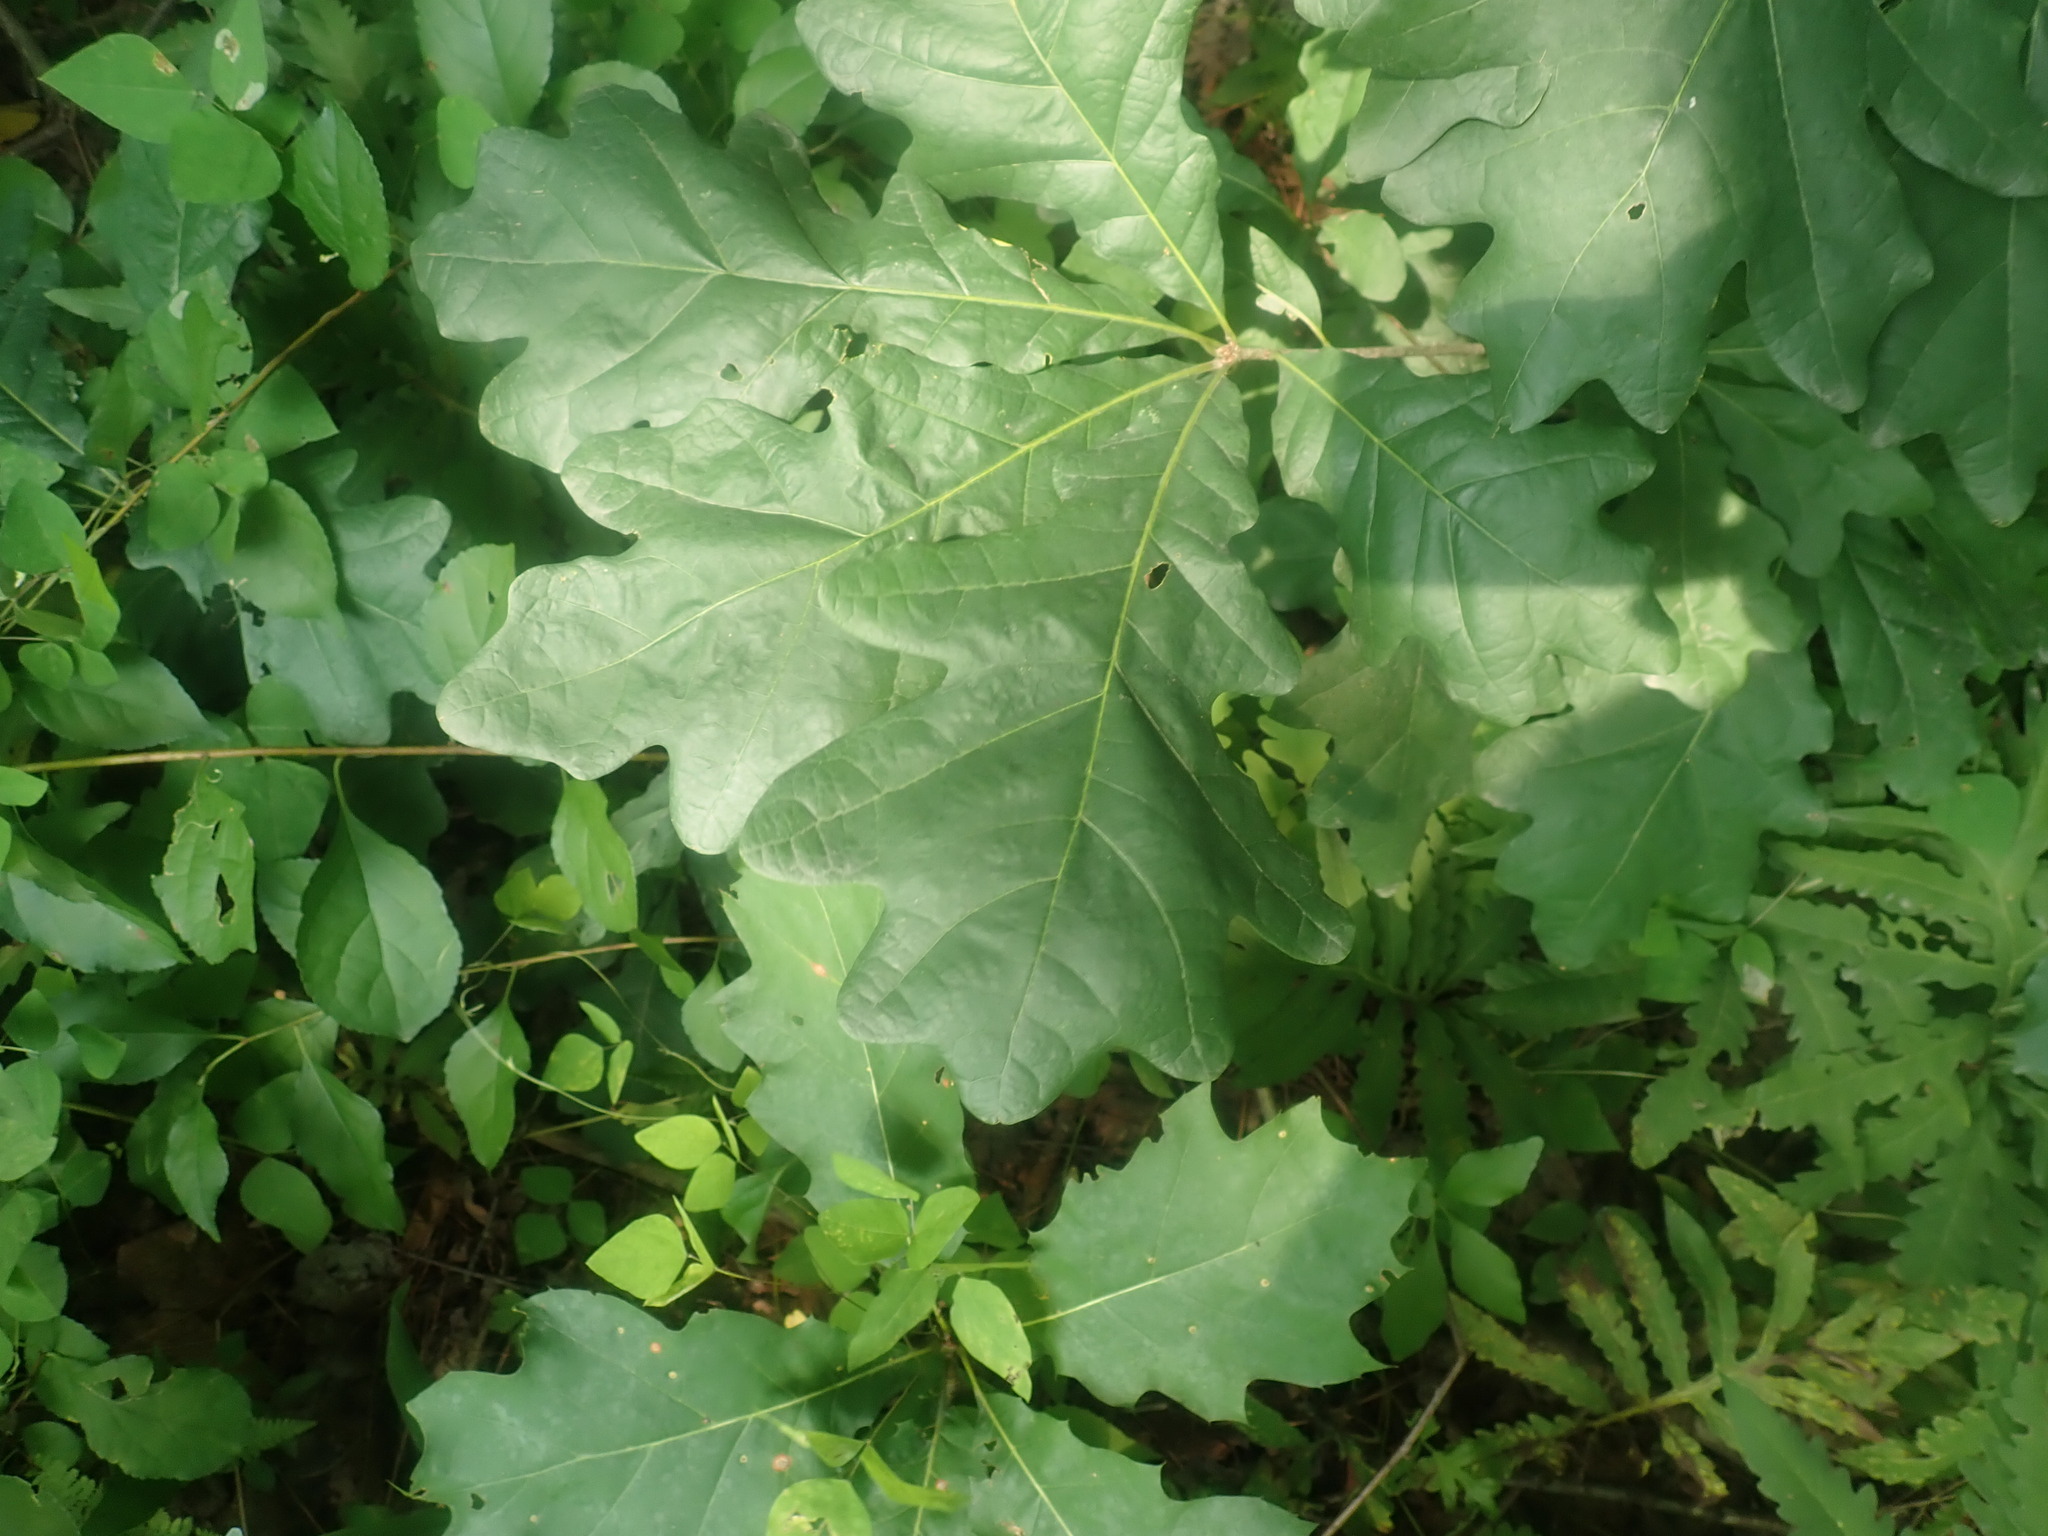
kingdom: Plantae
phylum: Tracheophyta
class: Magnoliopsida
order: Fagales
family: Fagaceae
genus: Quercus
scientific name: Quercus alba
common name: White oak
